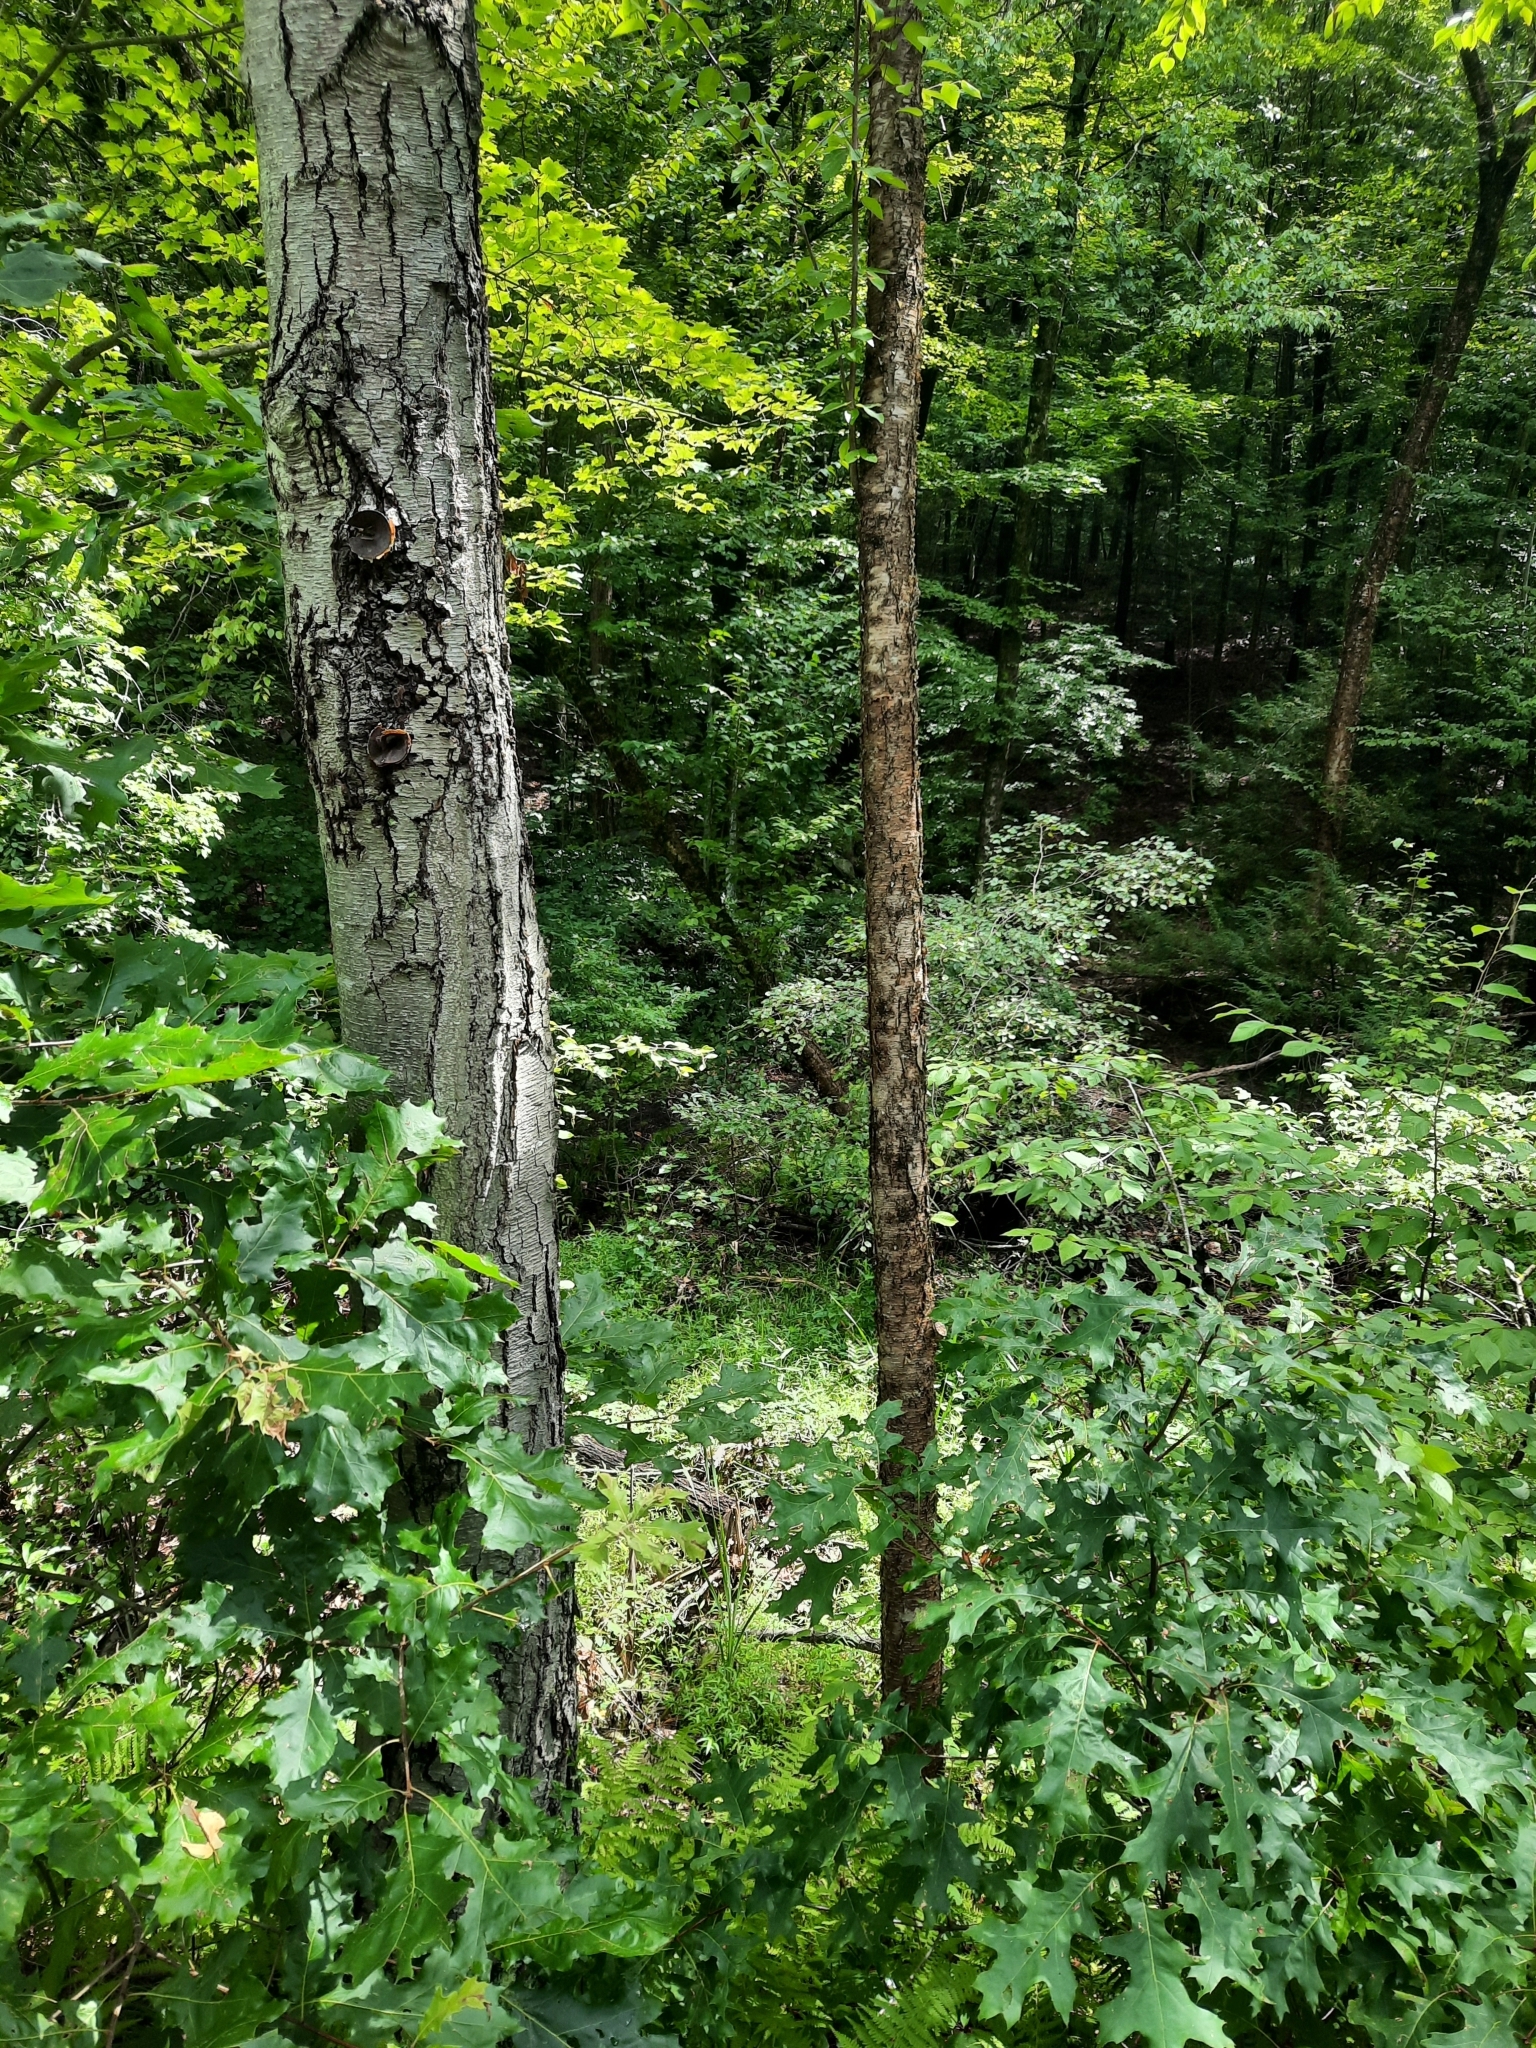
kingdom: Plantae
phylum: Tracheophyta
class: Magnoliopsida
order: Fagales
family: Betulaceae
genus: Betula
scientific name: Betula lenta
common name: Black birch
